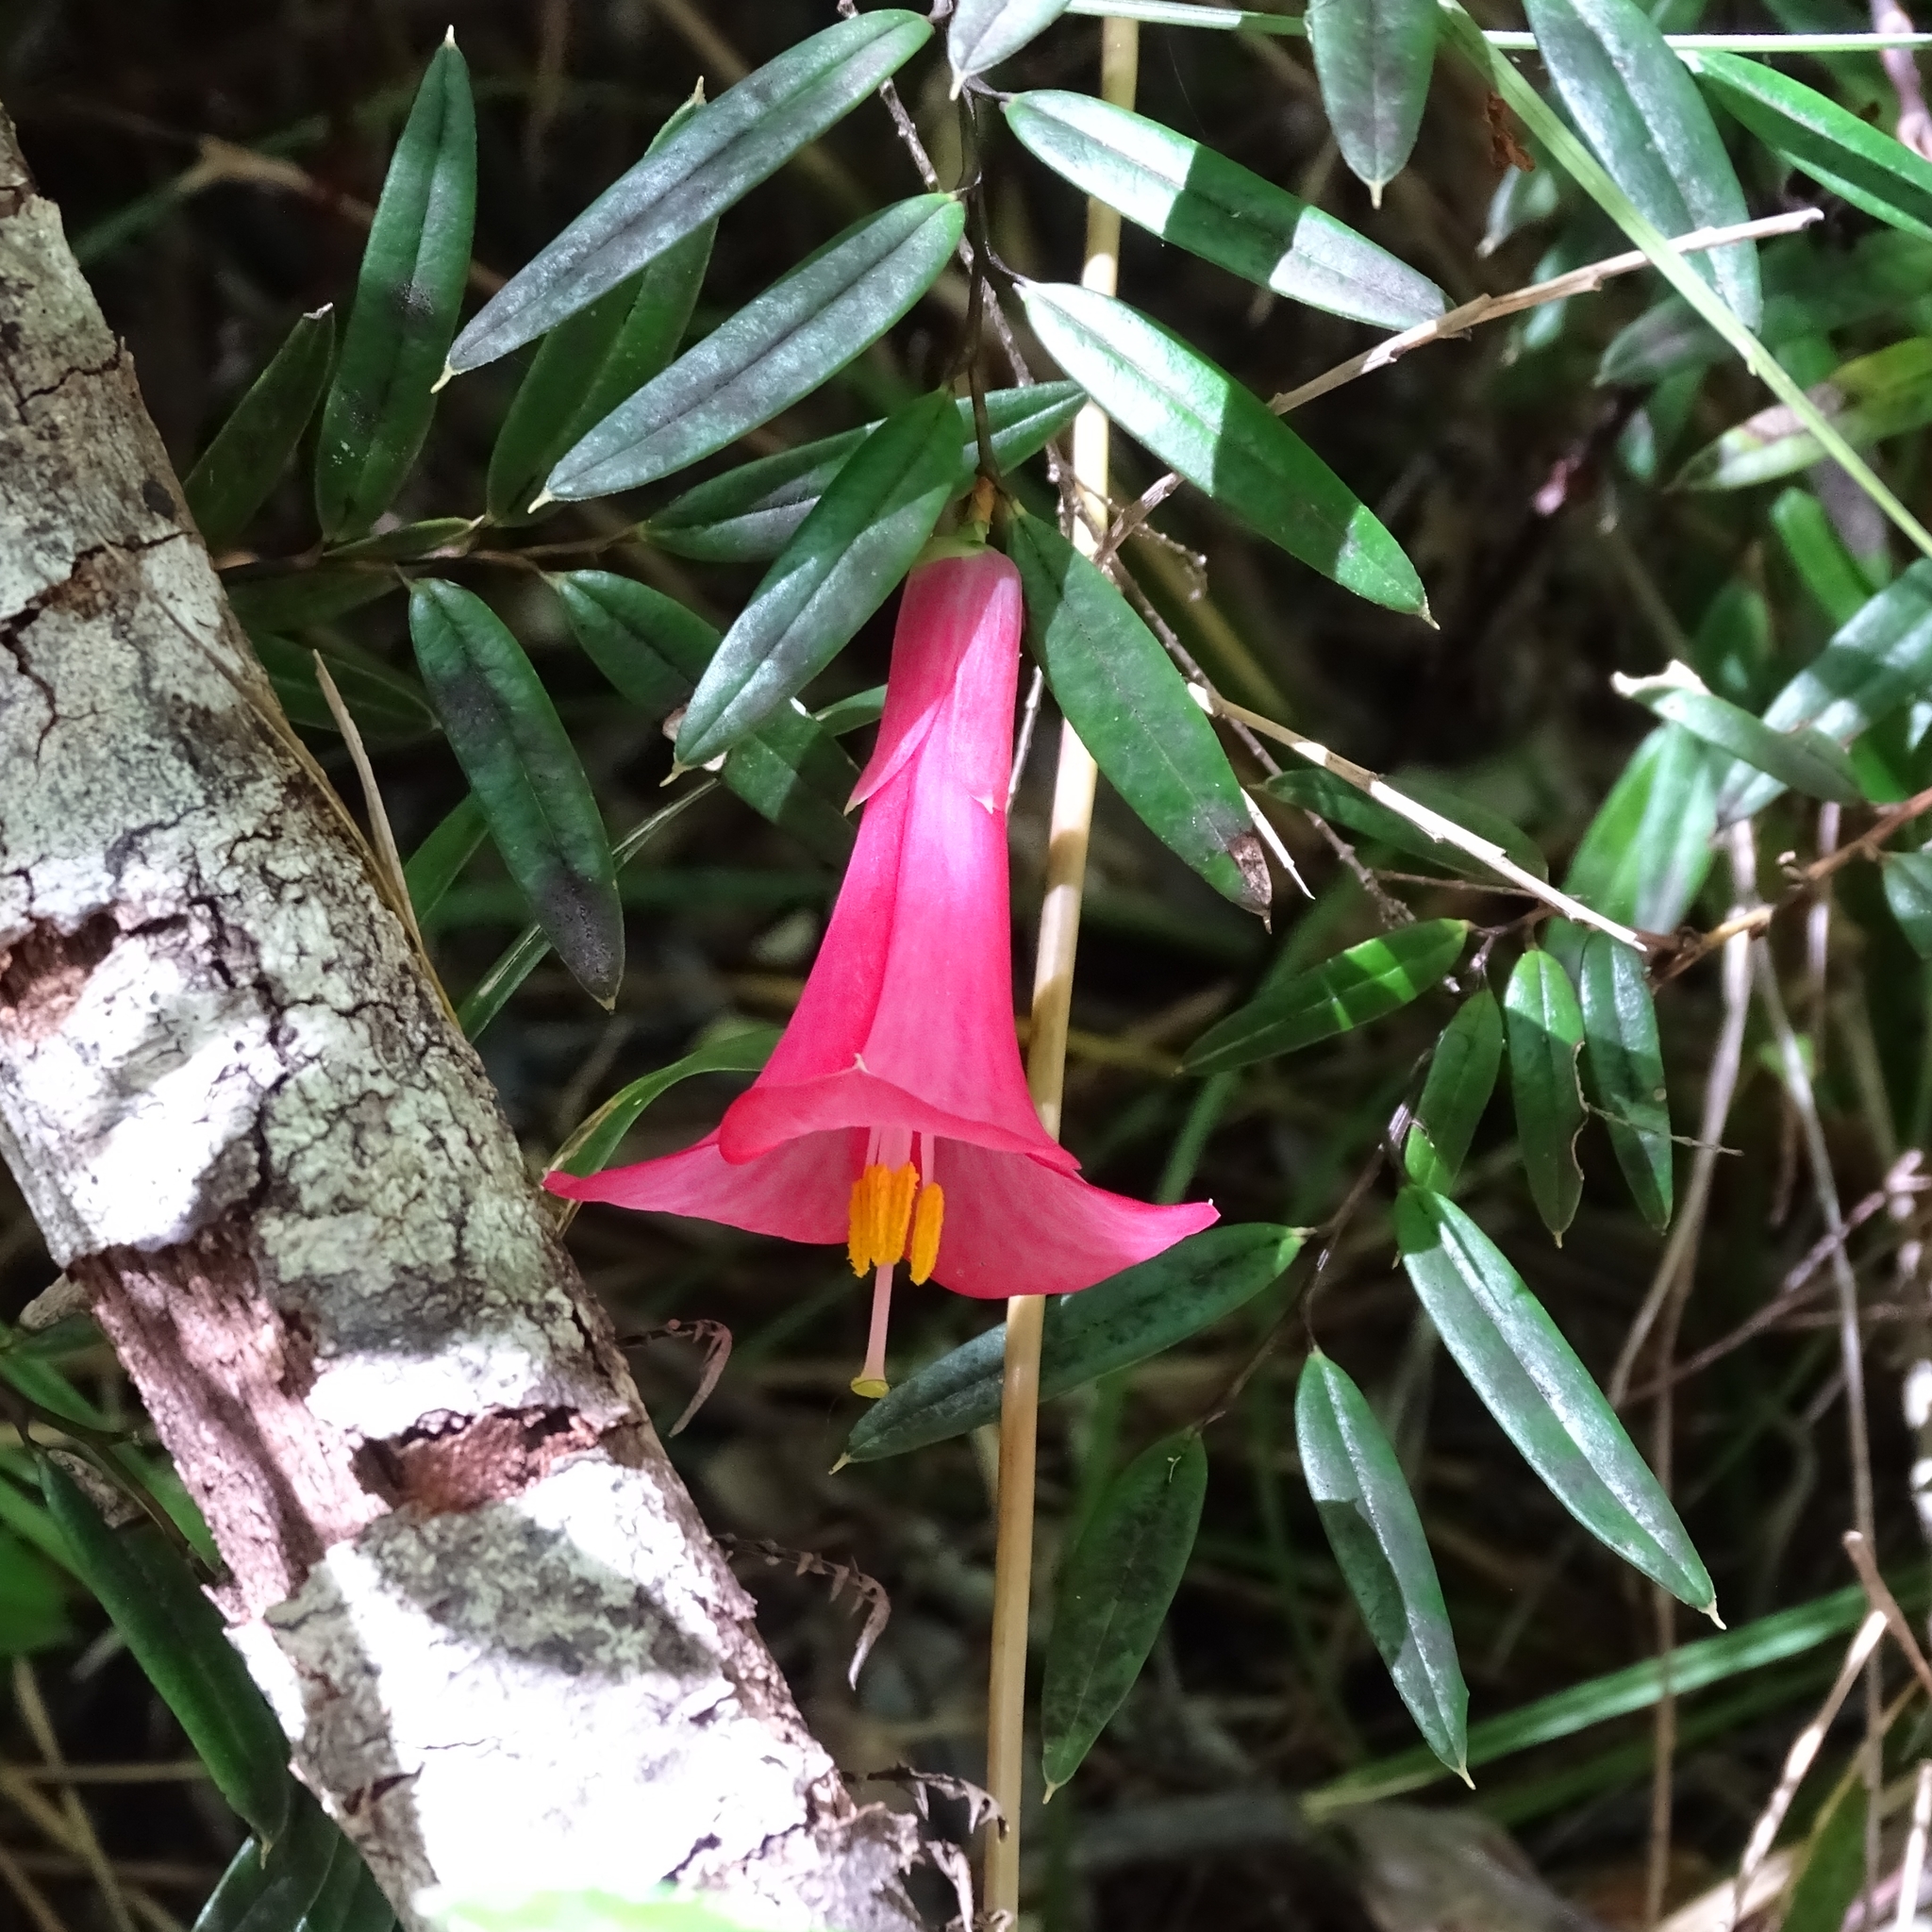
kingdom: Plantae
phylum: Tracheophyta
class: Liliopsida
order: Liliales
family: Philesiaceae
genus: Philesia
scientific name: Philesia magellanica
